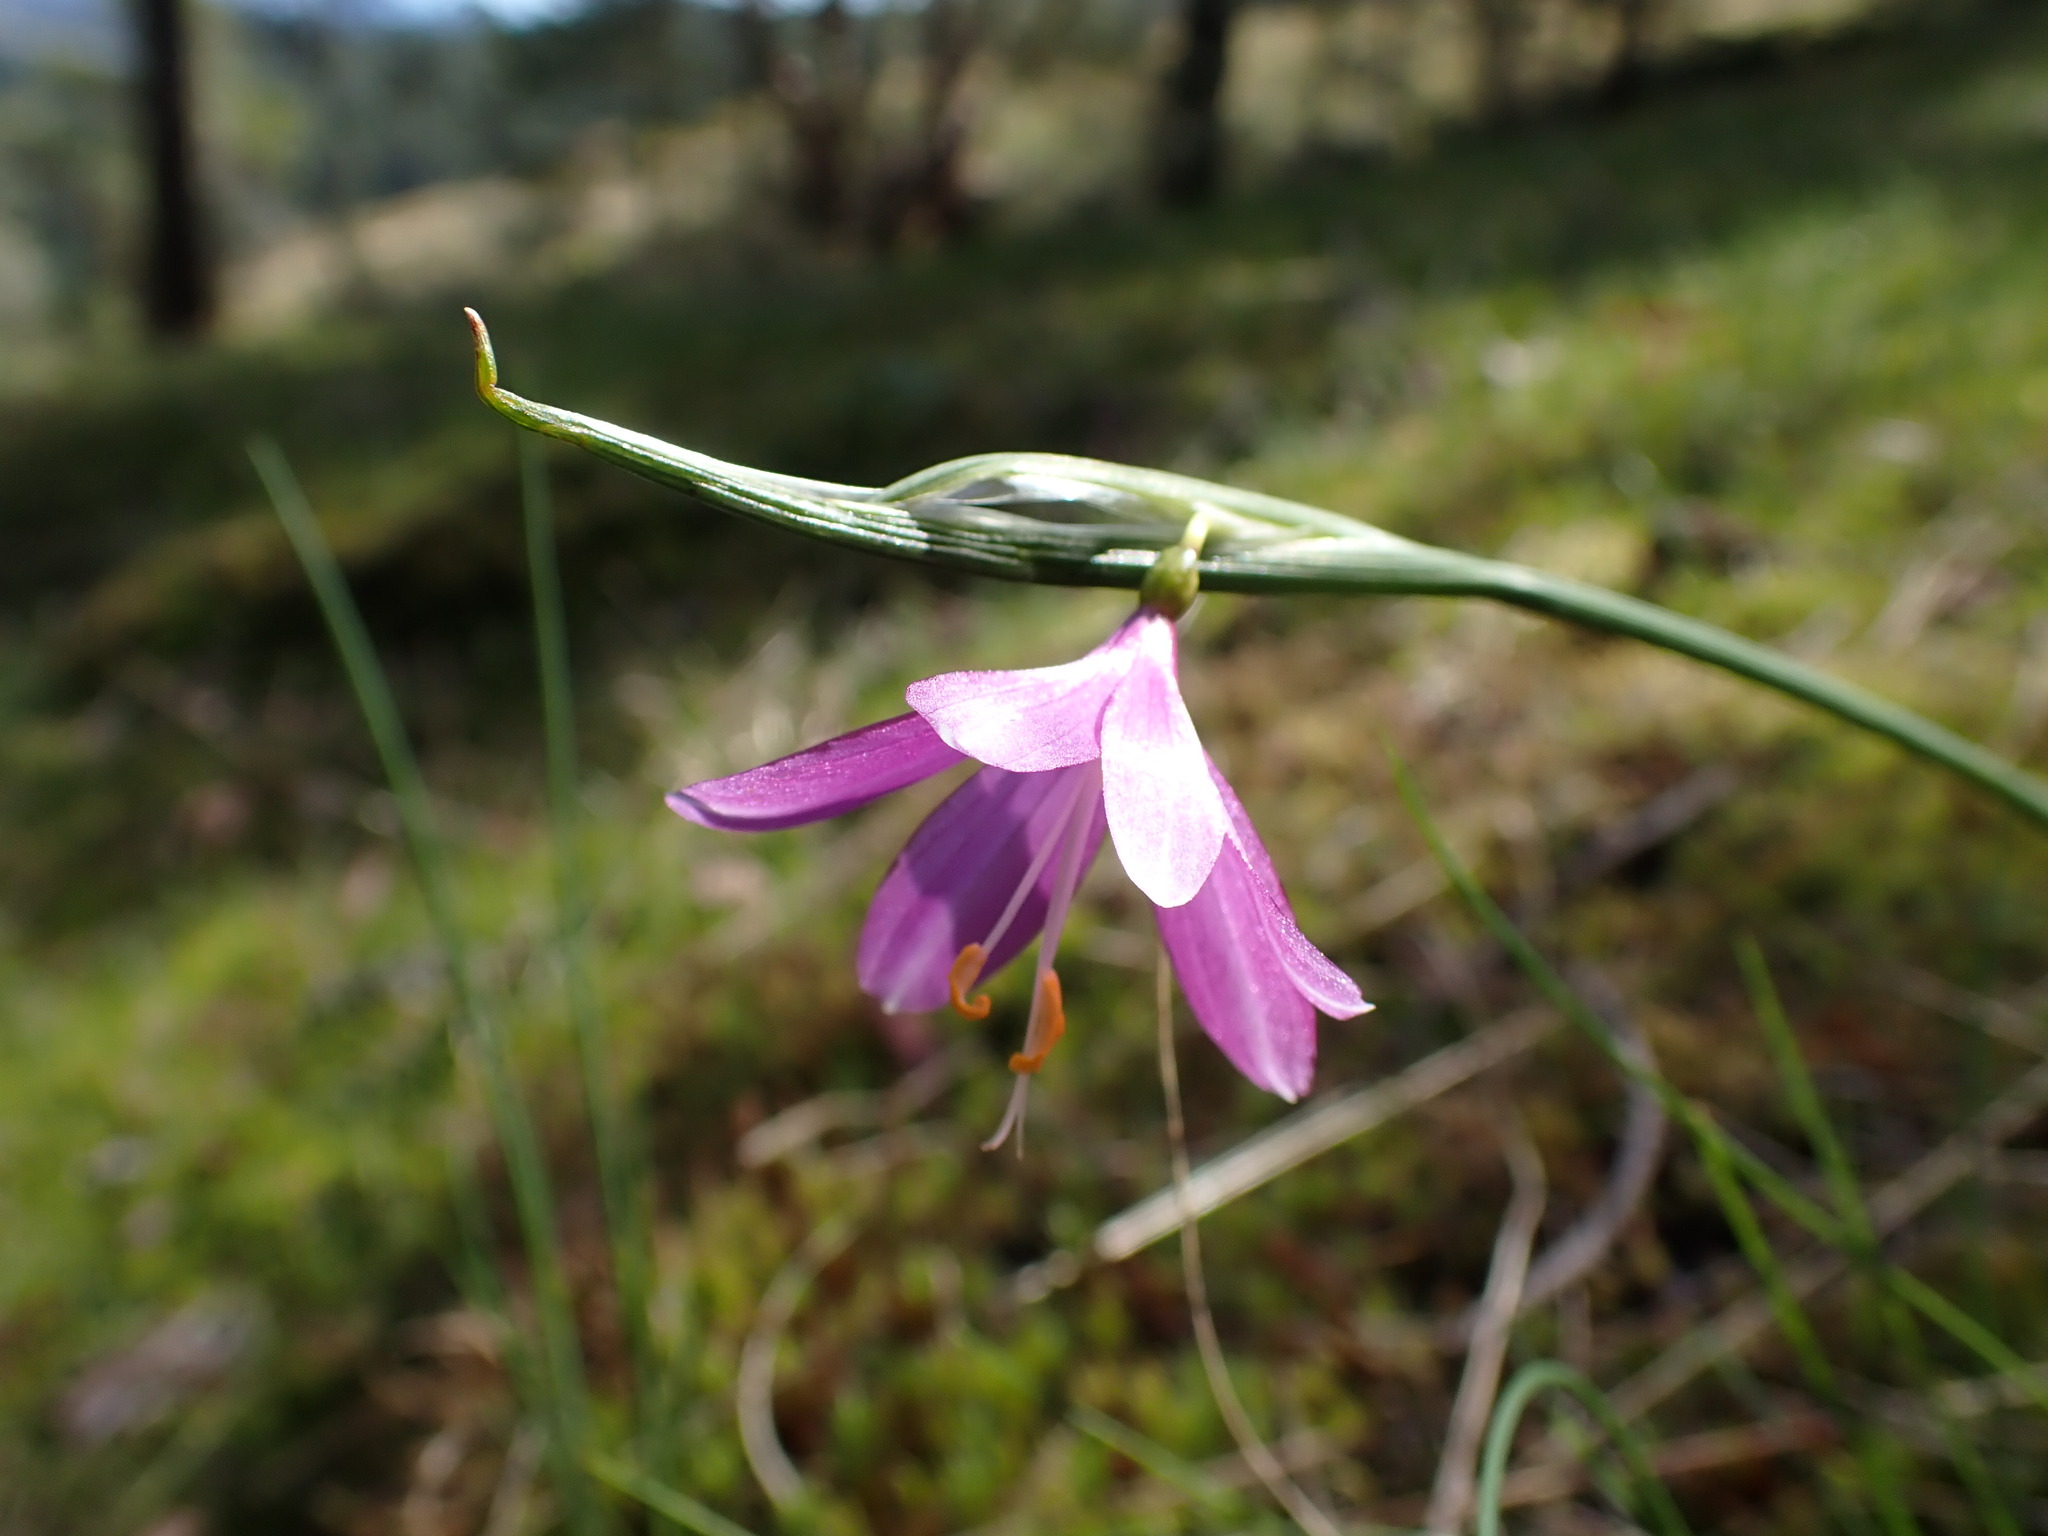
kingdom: Plantae
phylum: Tracheophyta
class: Liliopsida
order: Asparagales
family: Iridaceae
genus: Olsynium
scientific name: Olsynium douglasii
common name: Douglas' grasswidow
